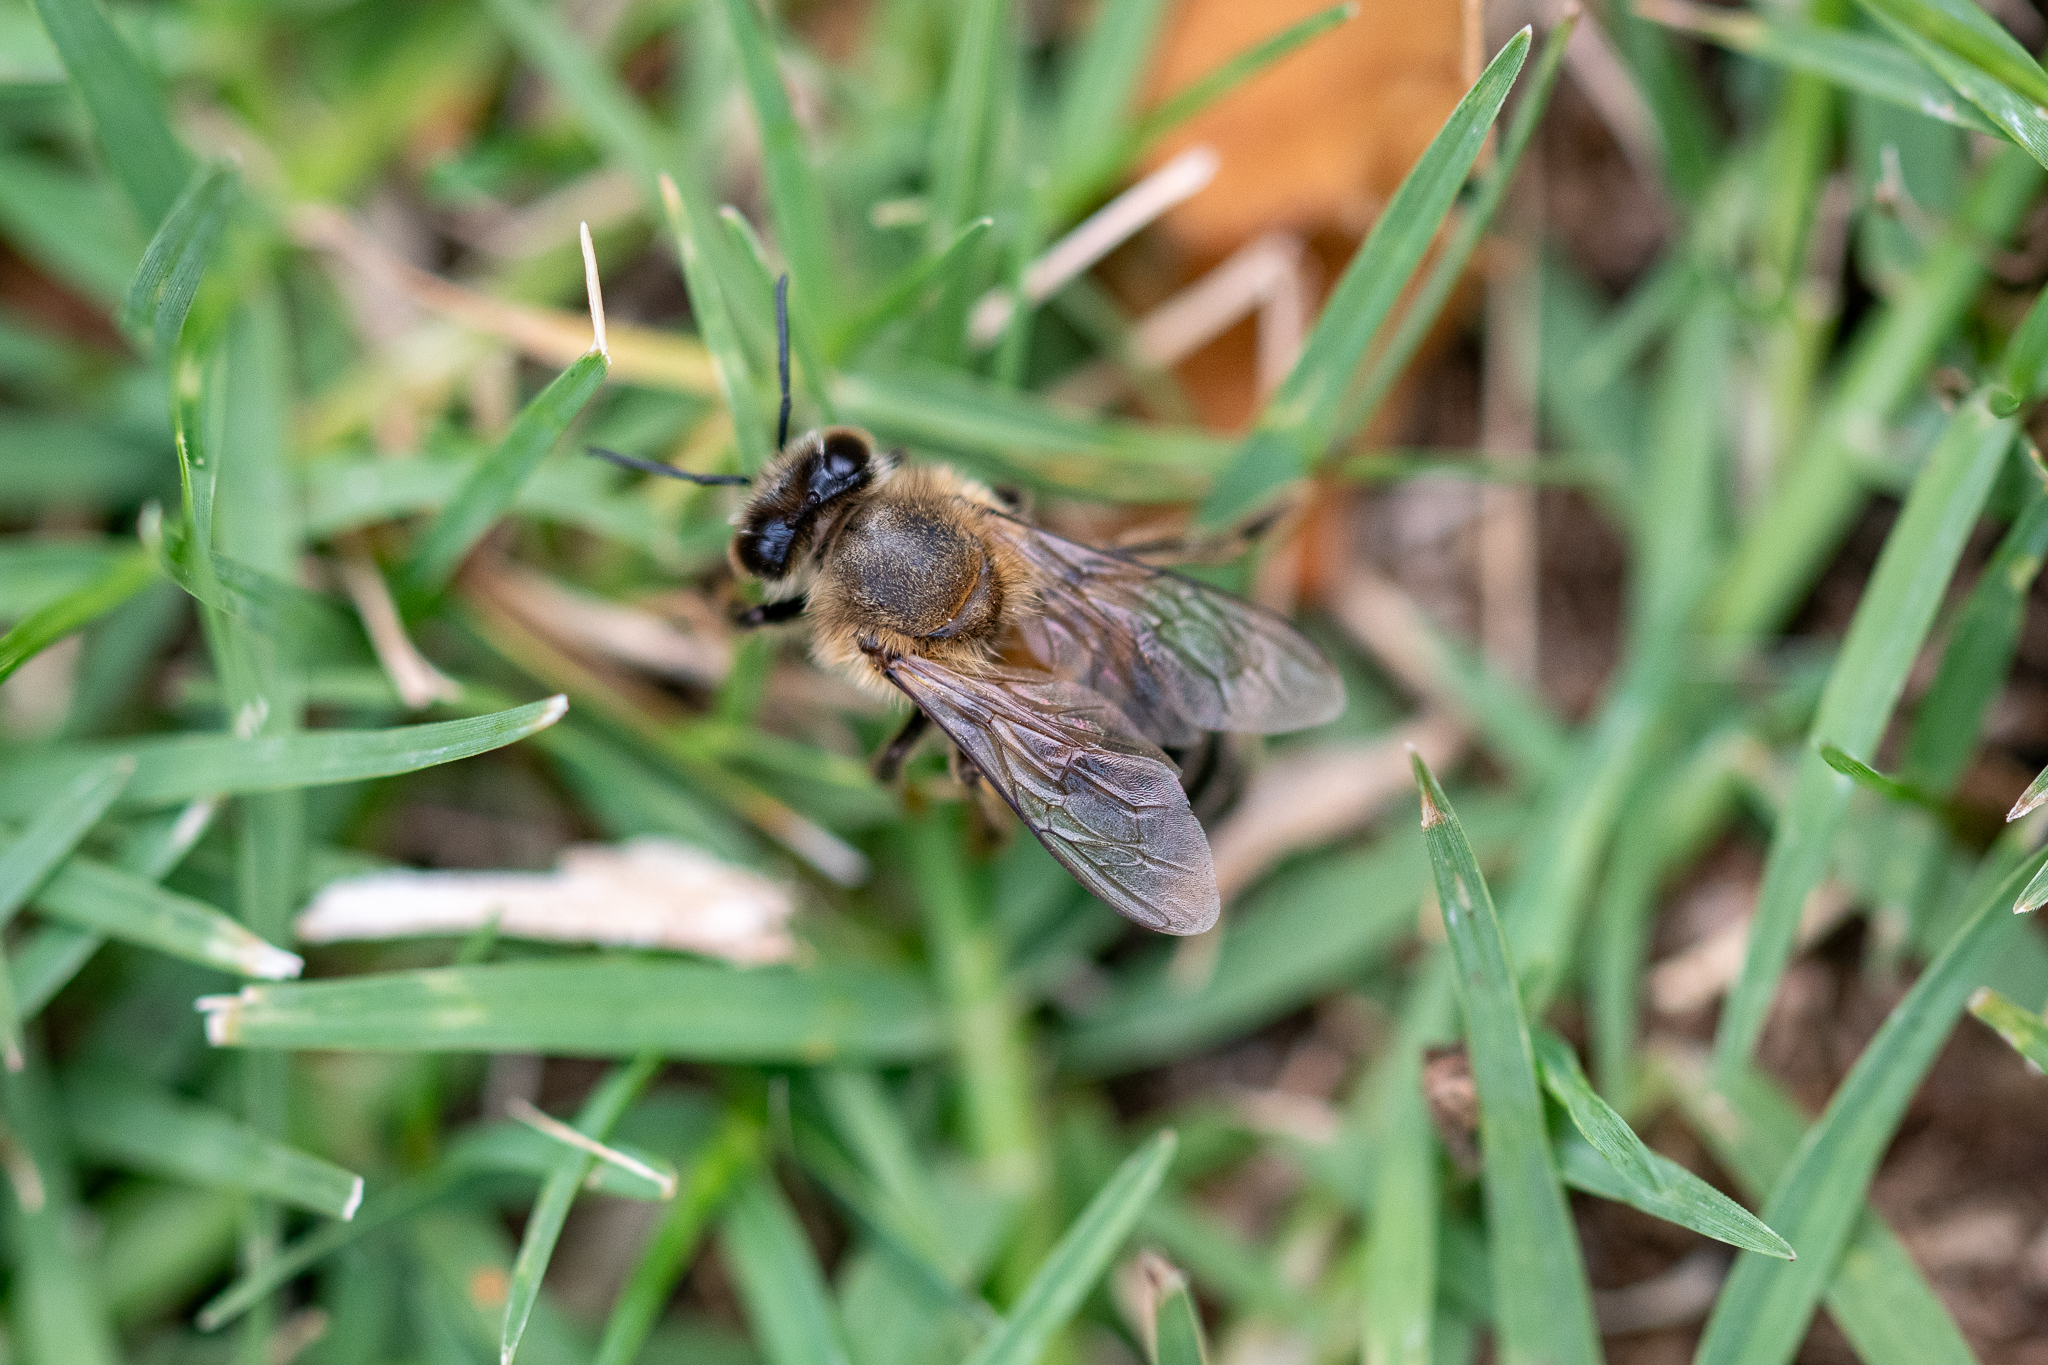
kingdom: Animalia
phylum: Arthropoda
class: Insecta
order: Hymenoptera
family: Apidae
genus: Apis
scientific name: Apis mellifera
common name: Honey bee
